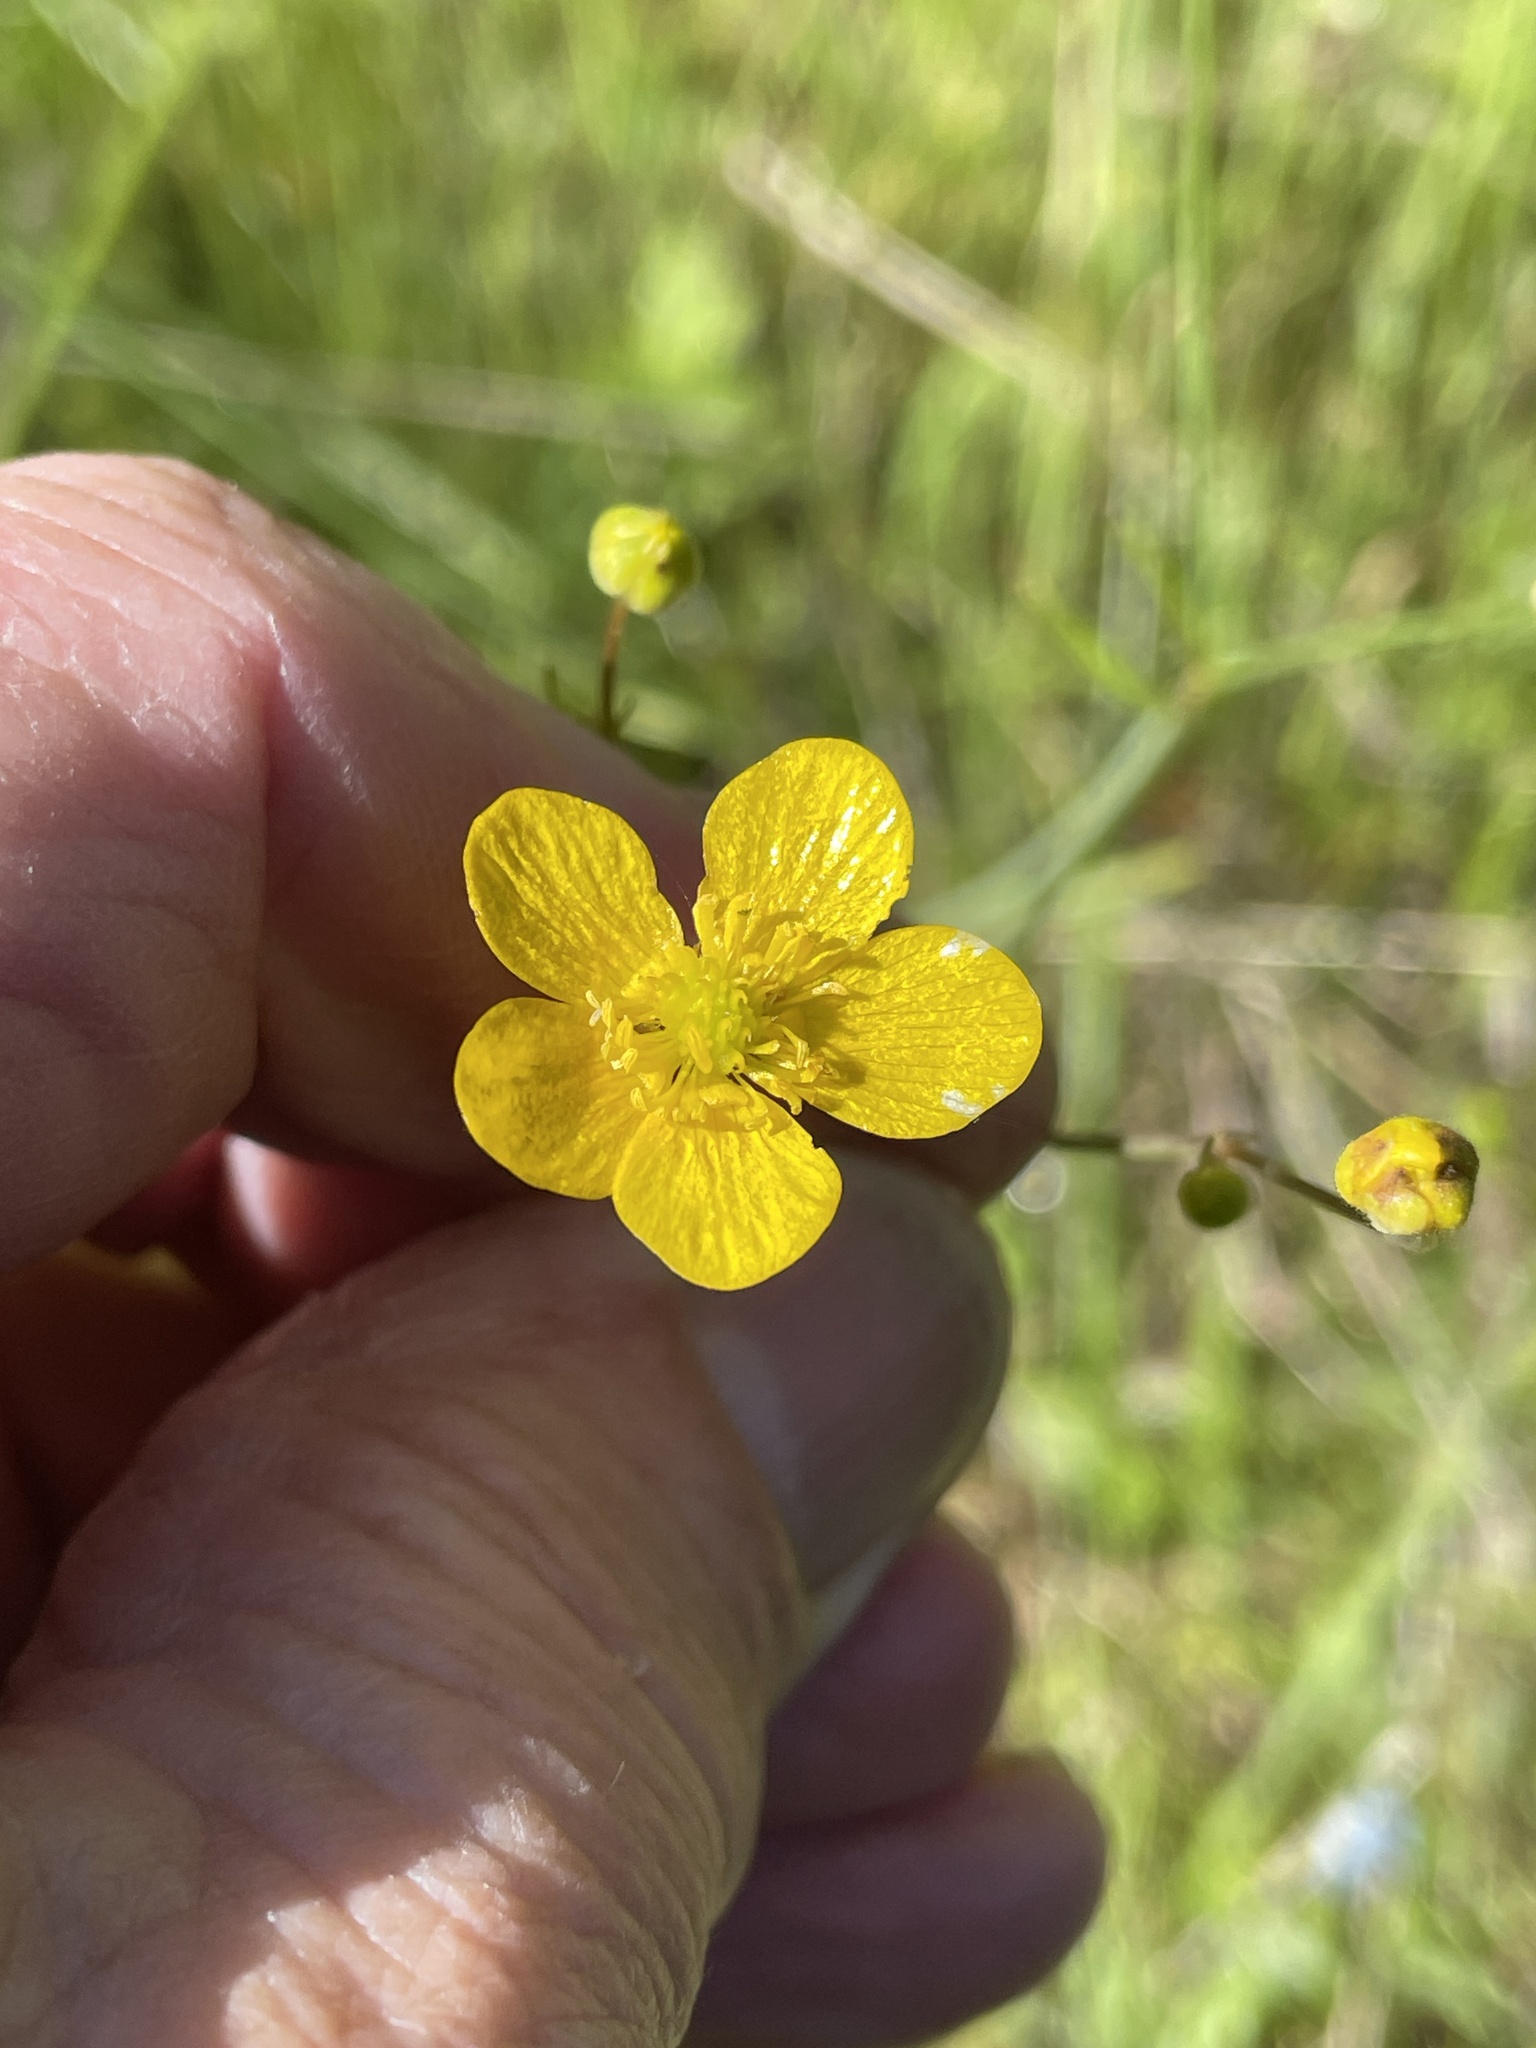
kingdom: Plantae
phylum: Tracheophyta
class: Magnoliopsida
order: Ranunculales
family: Ranunculaceae
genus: Ranunculus
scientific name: Ranunculus occidentalis
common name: Western buttercup
